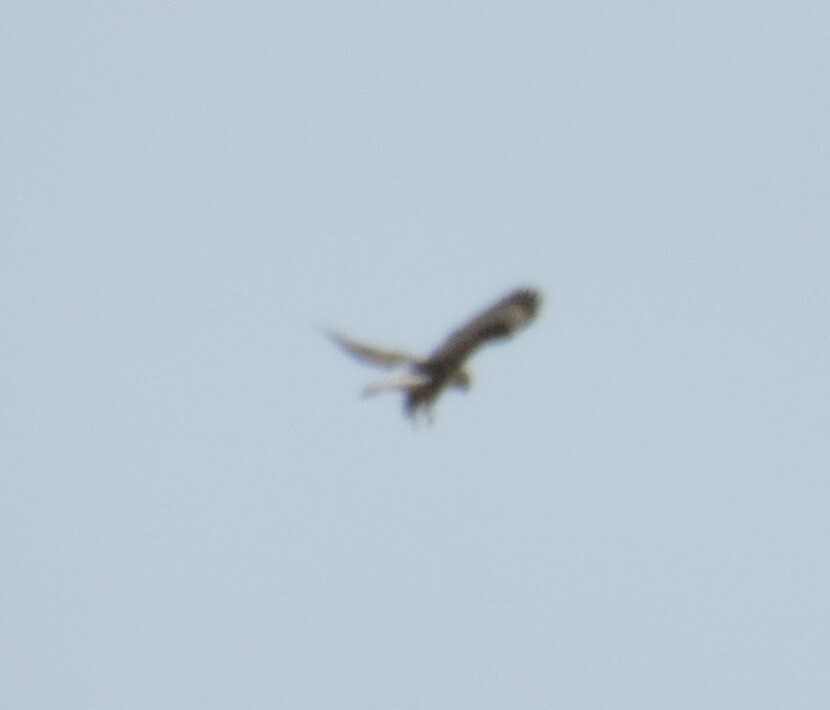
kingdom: Animalia
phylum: Chordata
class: Aves
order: Accipitriformes
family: Accipitridae
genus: Buteo
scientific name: Buteo lagopus
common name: Rough-legged buzzard
